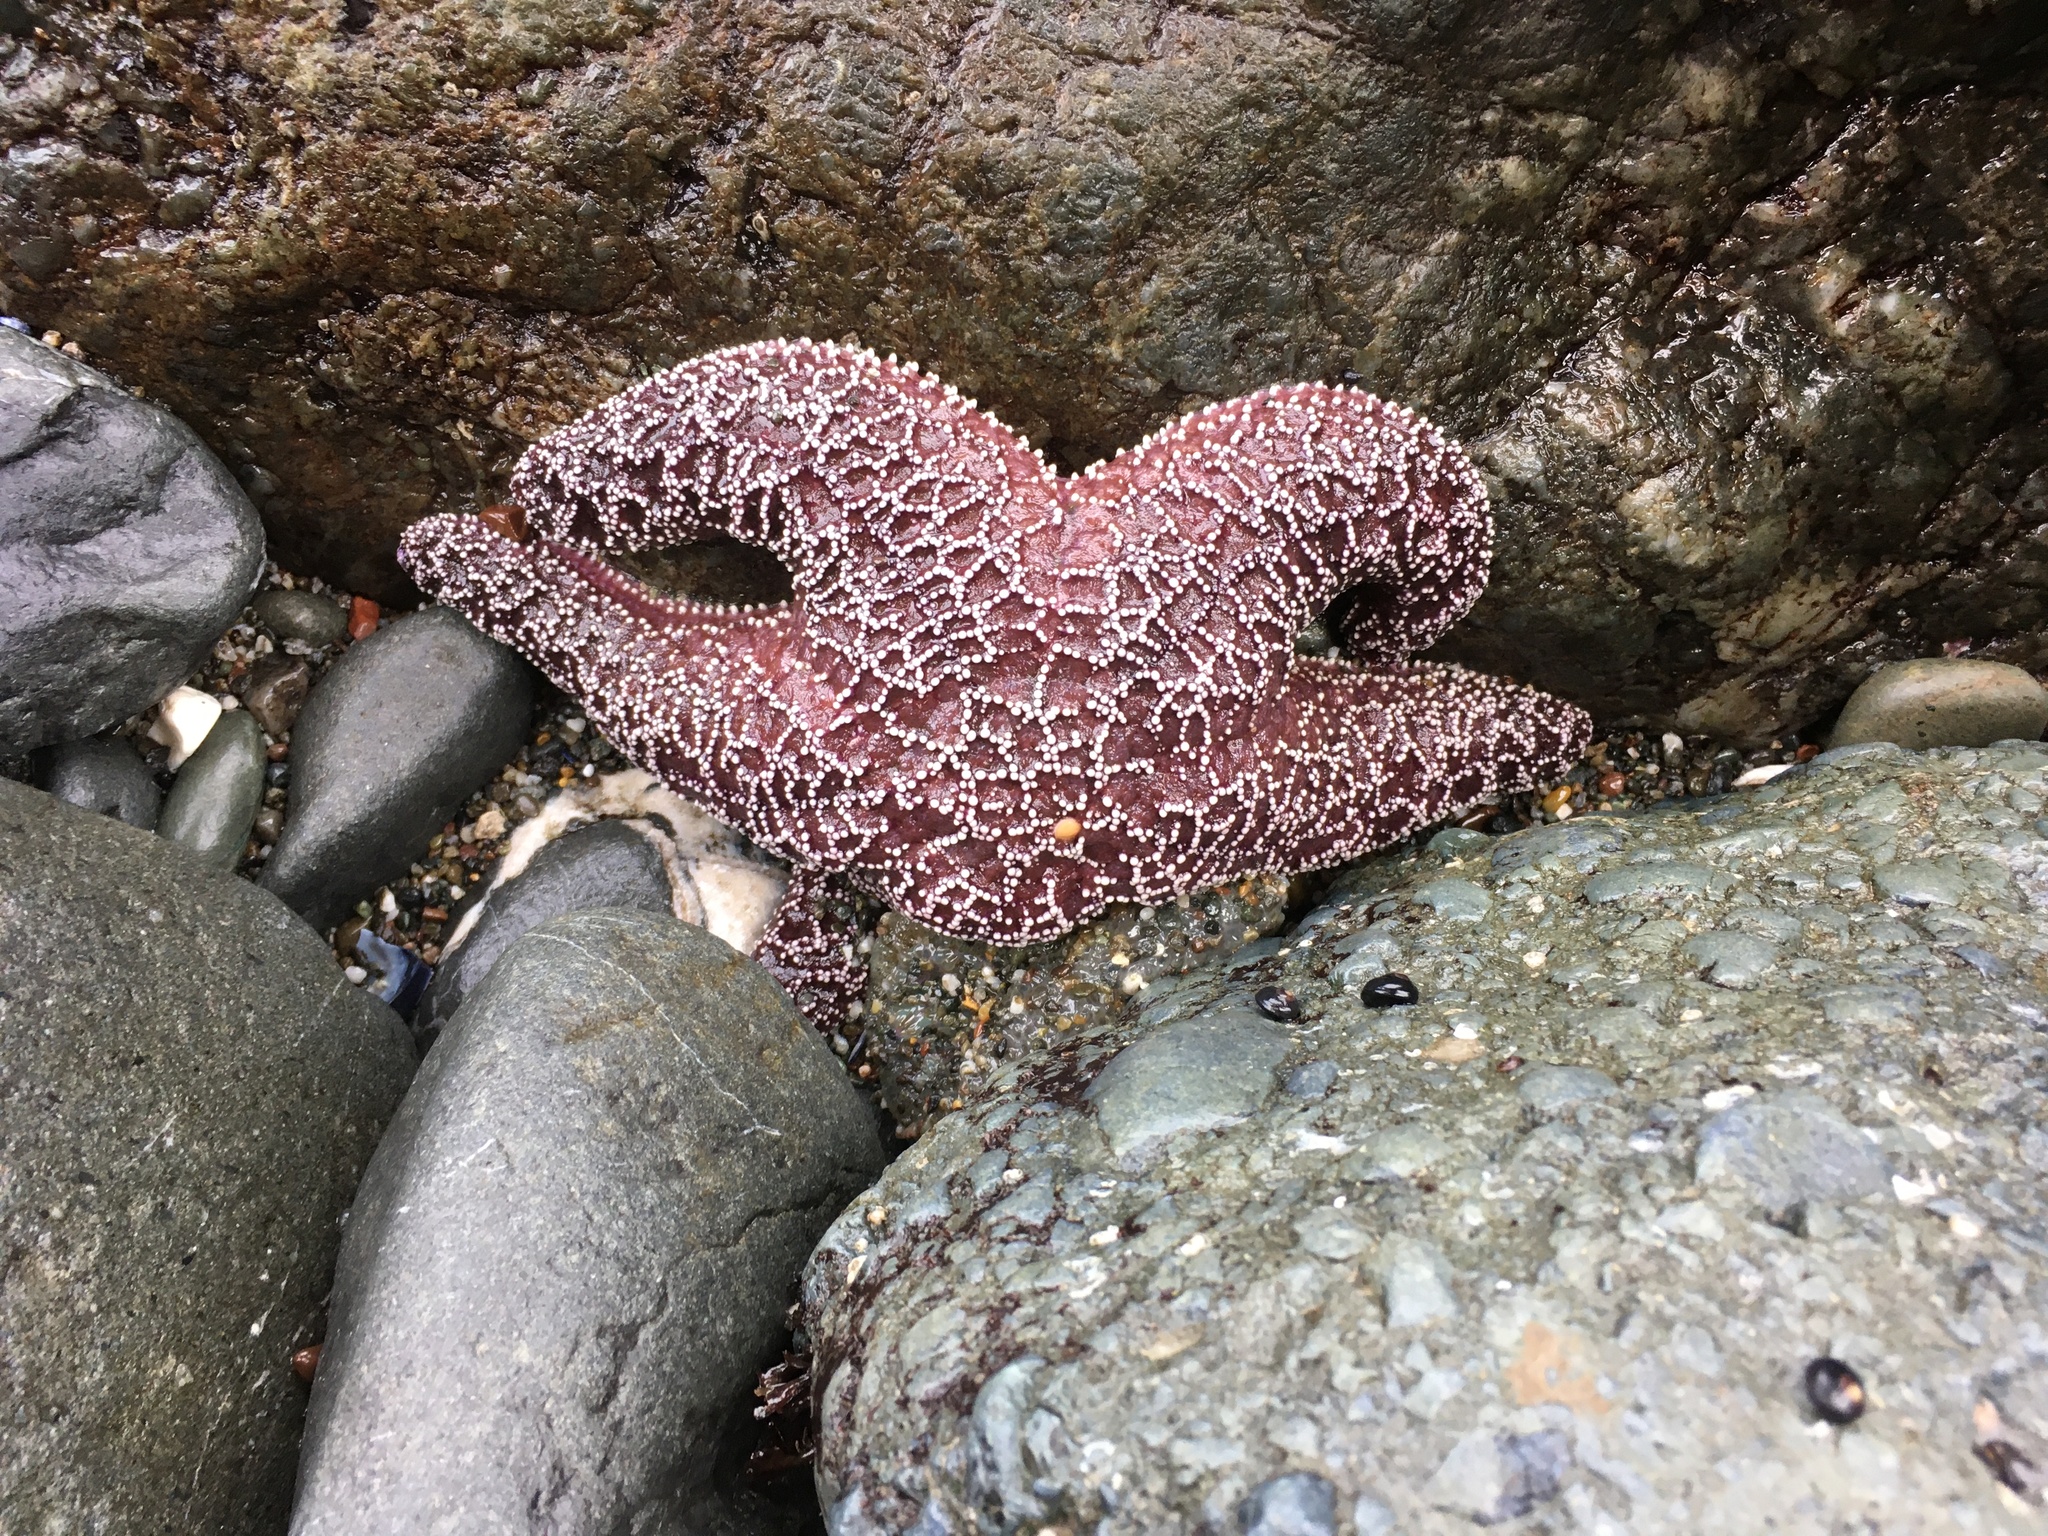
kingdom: Animalia
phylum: Echinodermata
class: Asteroidea
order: Forcipulatida
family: Asteriidae
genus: Pisaster
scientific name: Pisaster ochraceus
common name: Ochre stars
